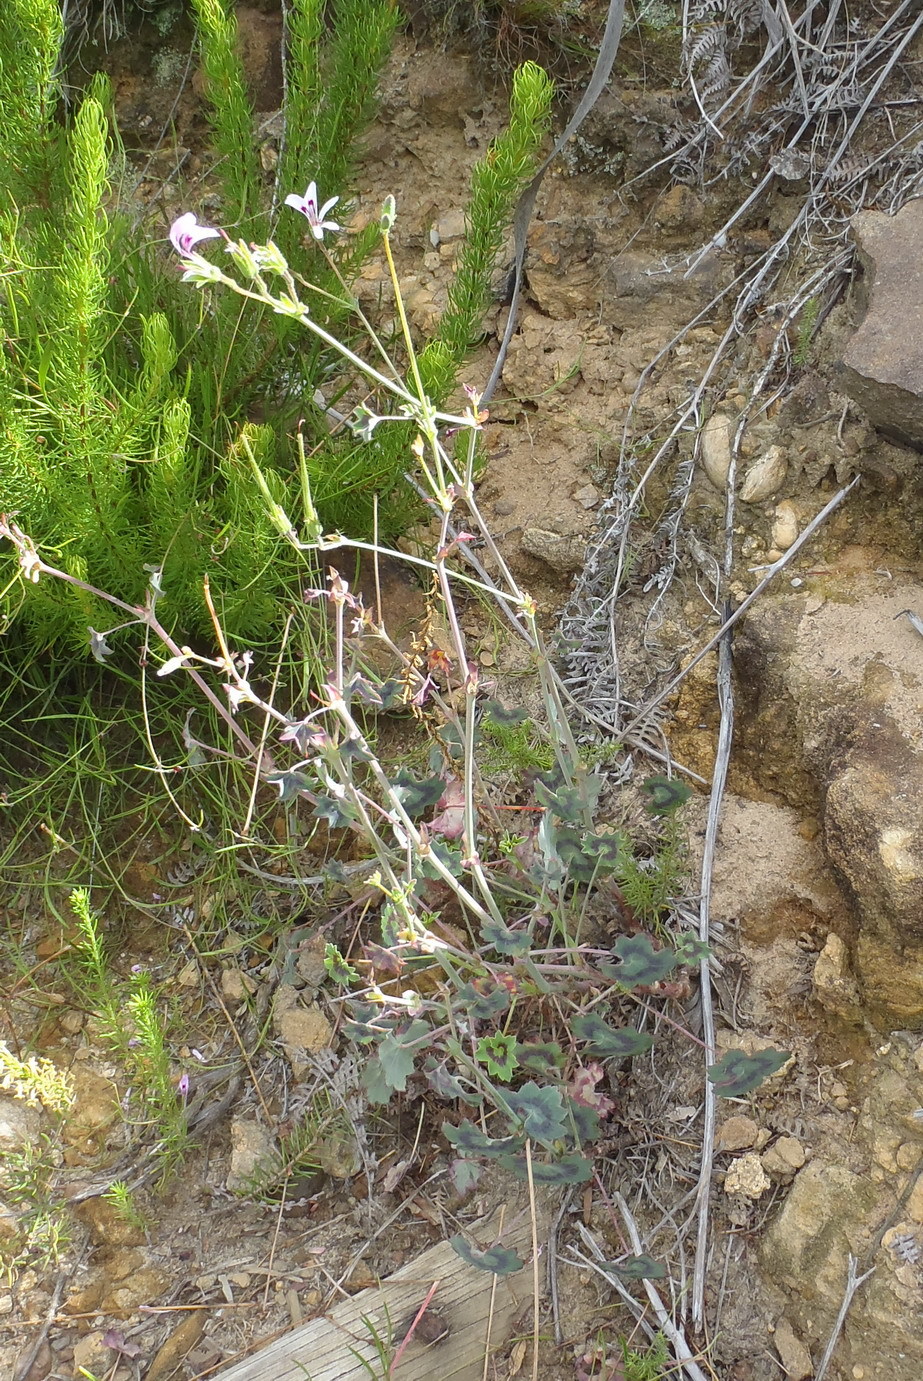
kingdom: Plantae
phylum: Tracheophyta
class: Magnoliopsida
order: Geraniales
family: Geraniaceae
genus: Pelargonium
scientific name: Pelargonium tabulare
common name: Table mountain pelargonium
